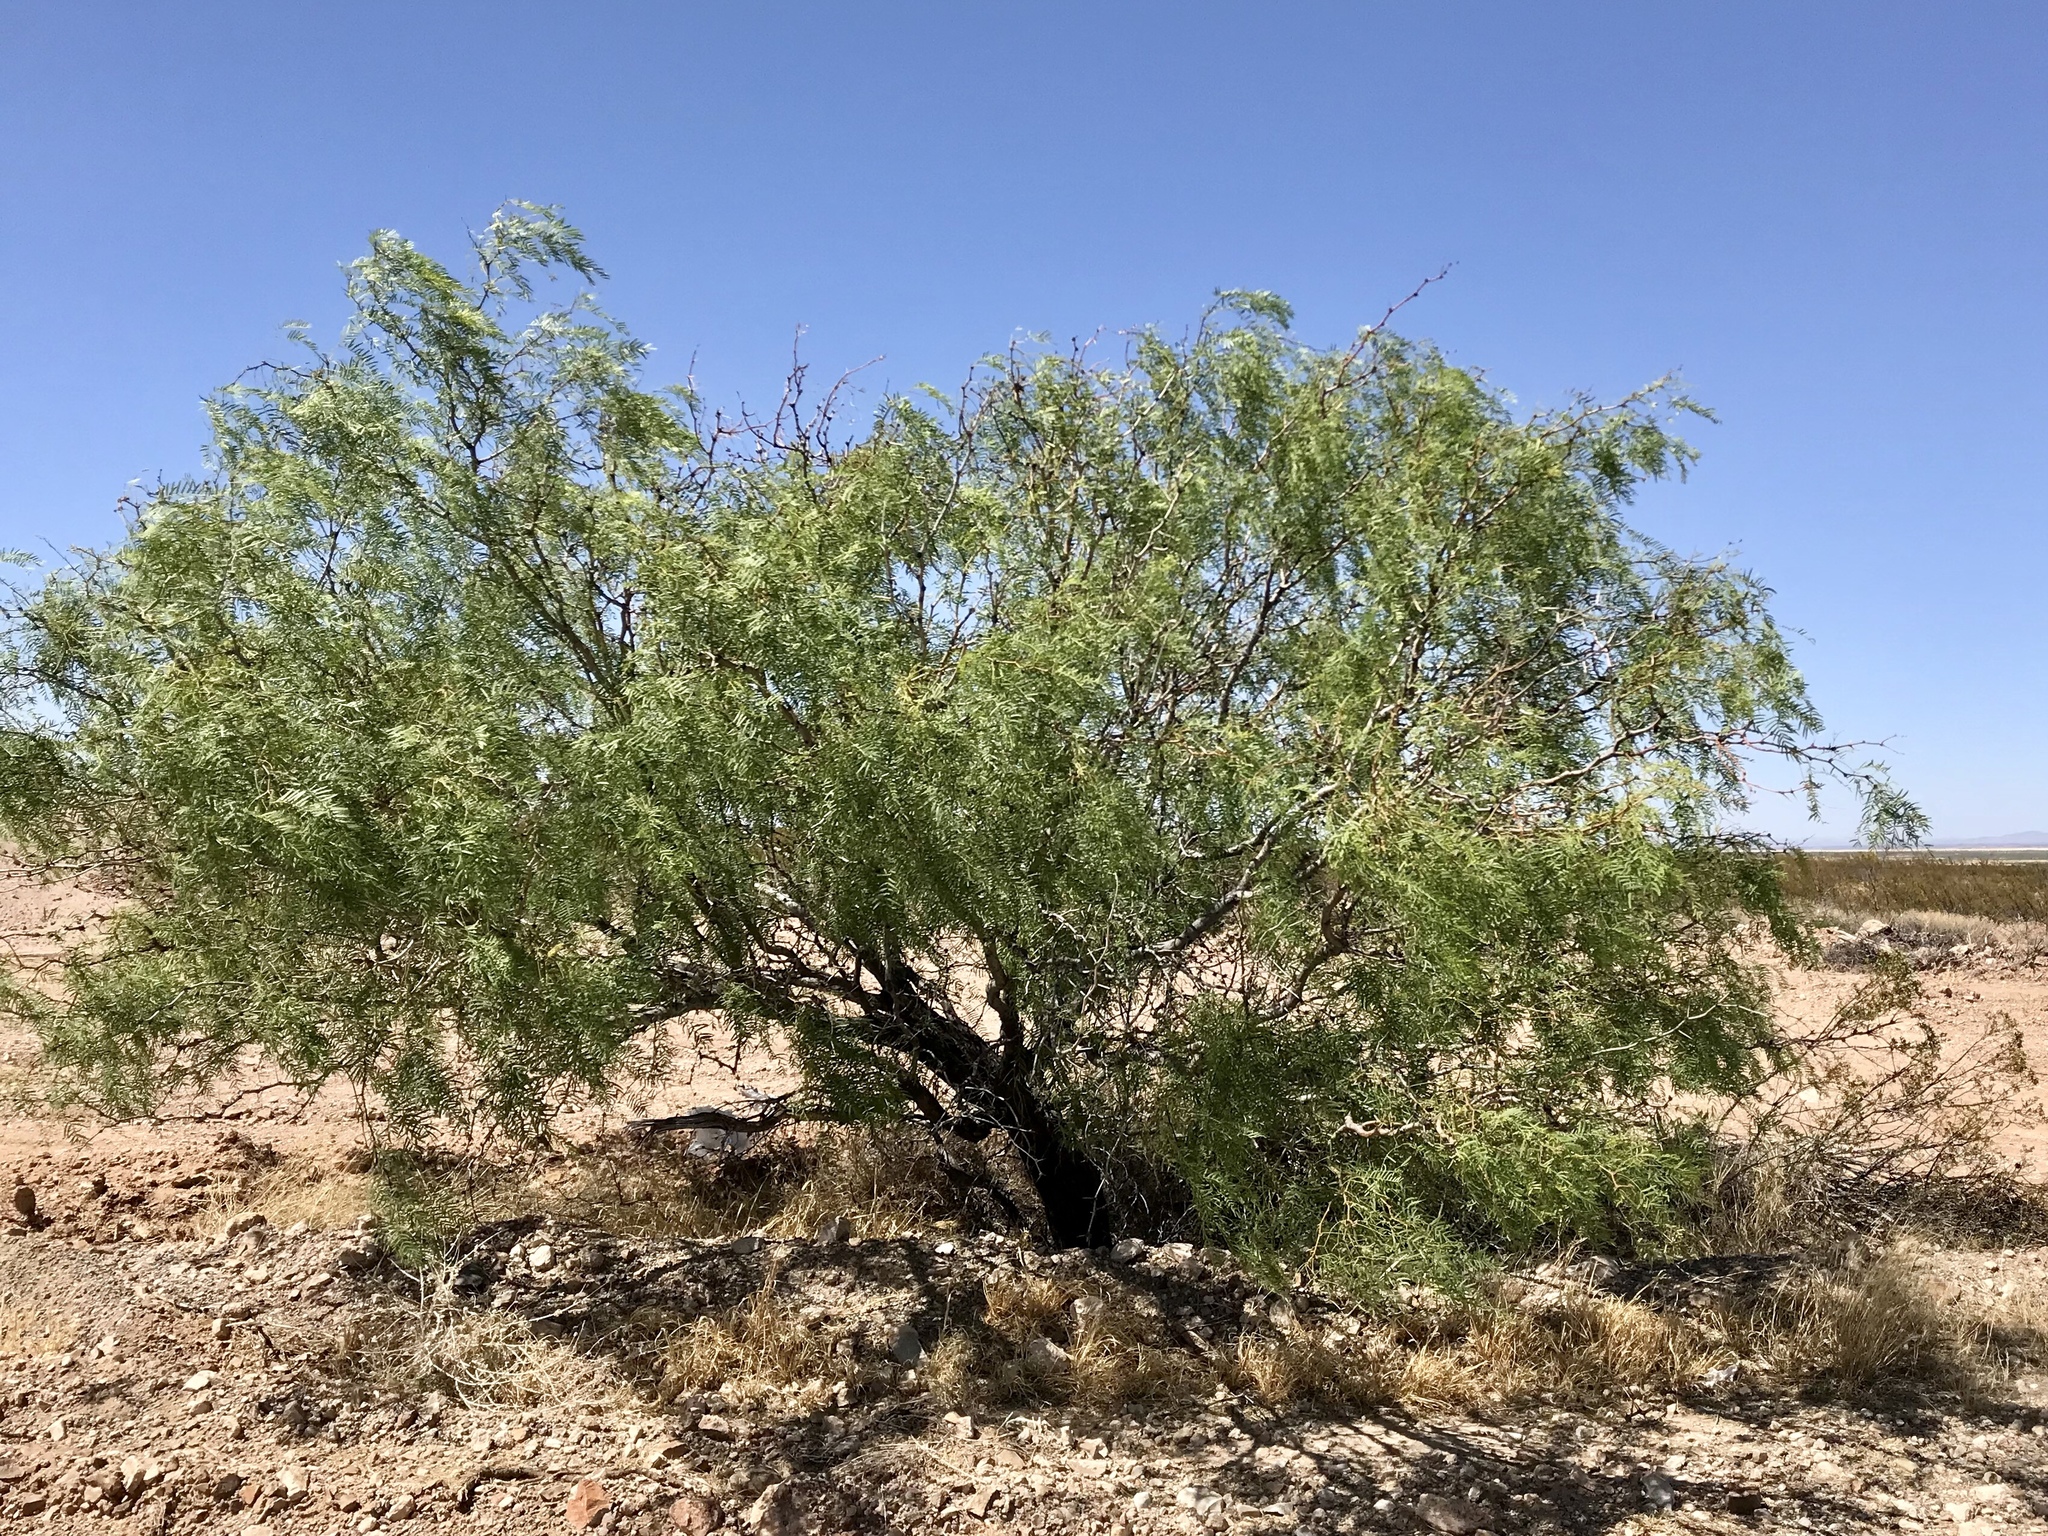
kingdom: Plantae
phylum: Tracheophyta
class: Magnoliopsida
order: Fabales
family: Fabaceae
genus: Prosopis
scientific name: Prosopis glandulosa
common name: Honey mesquite
